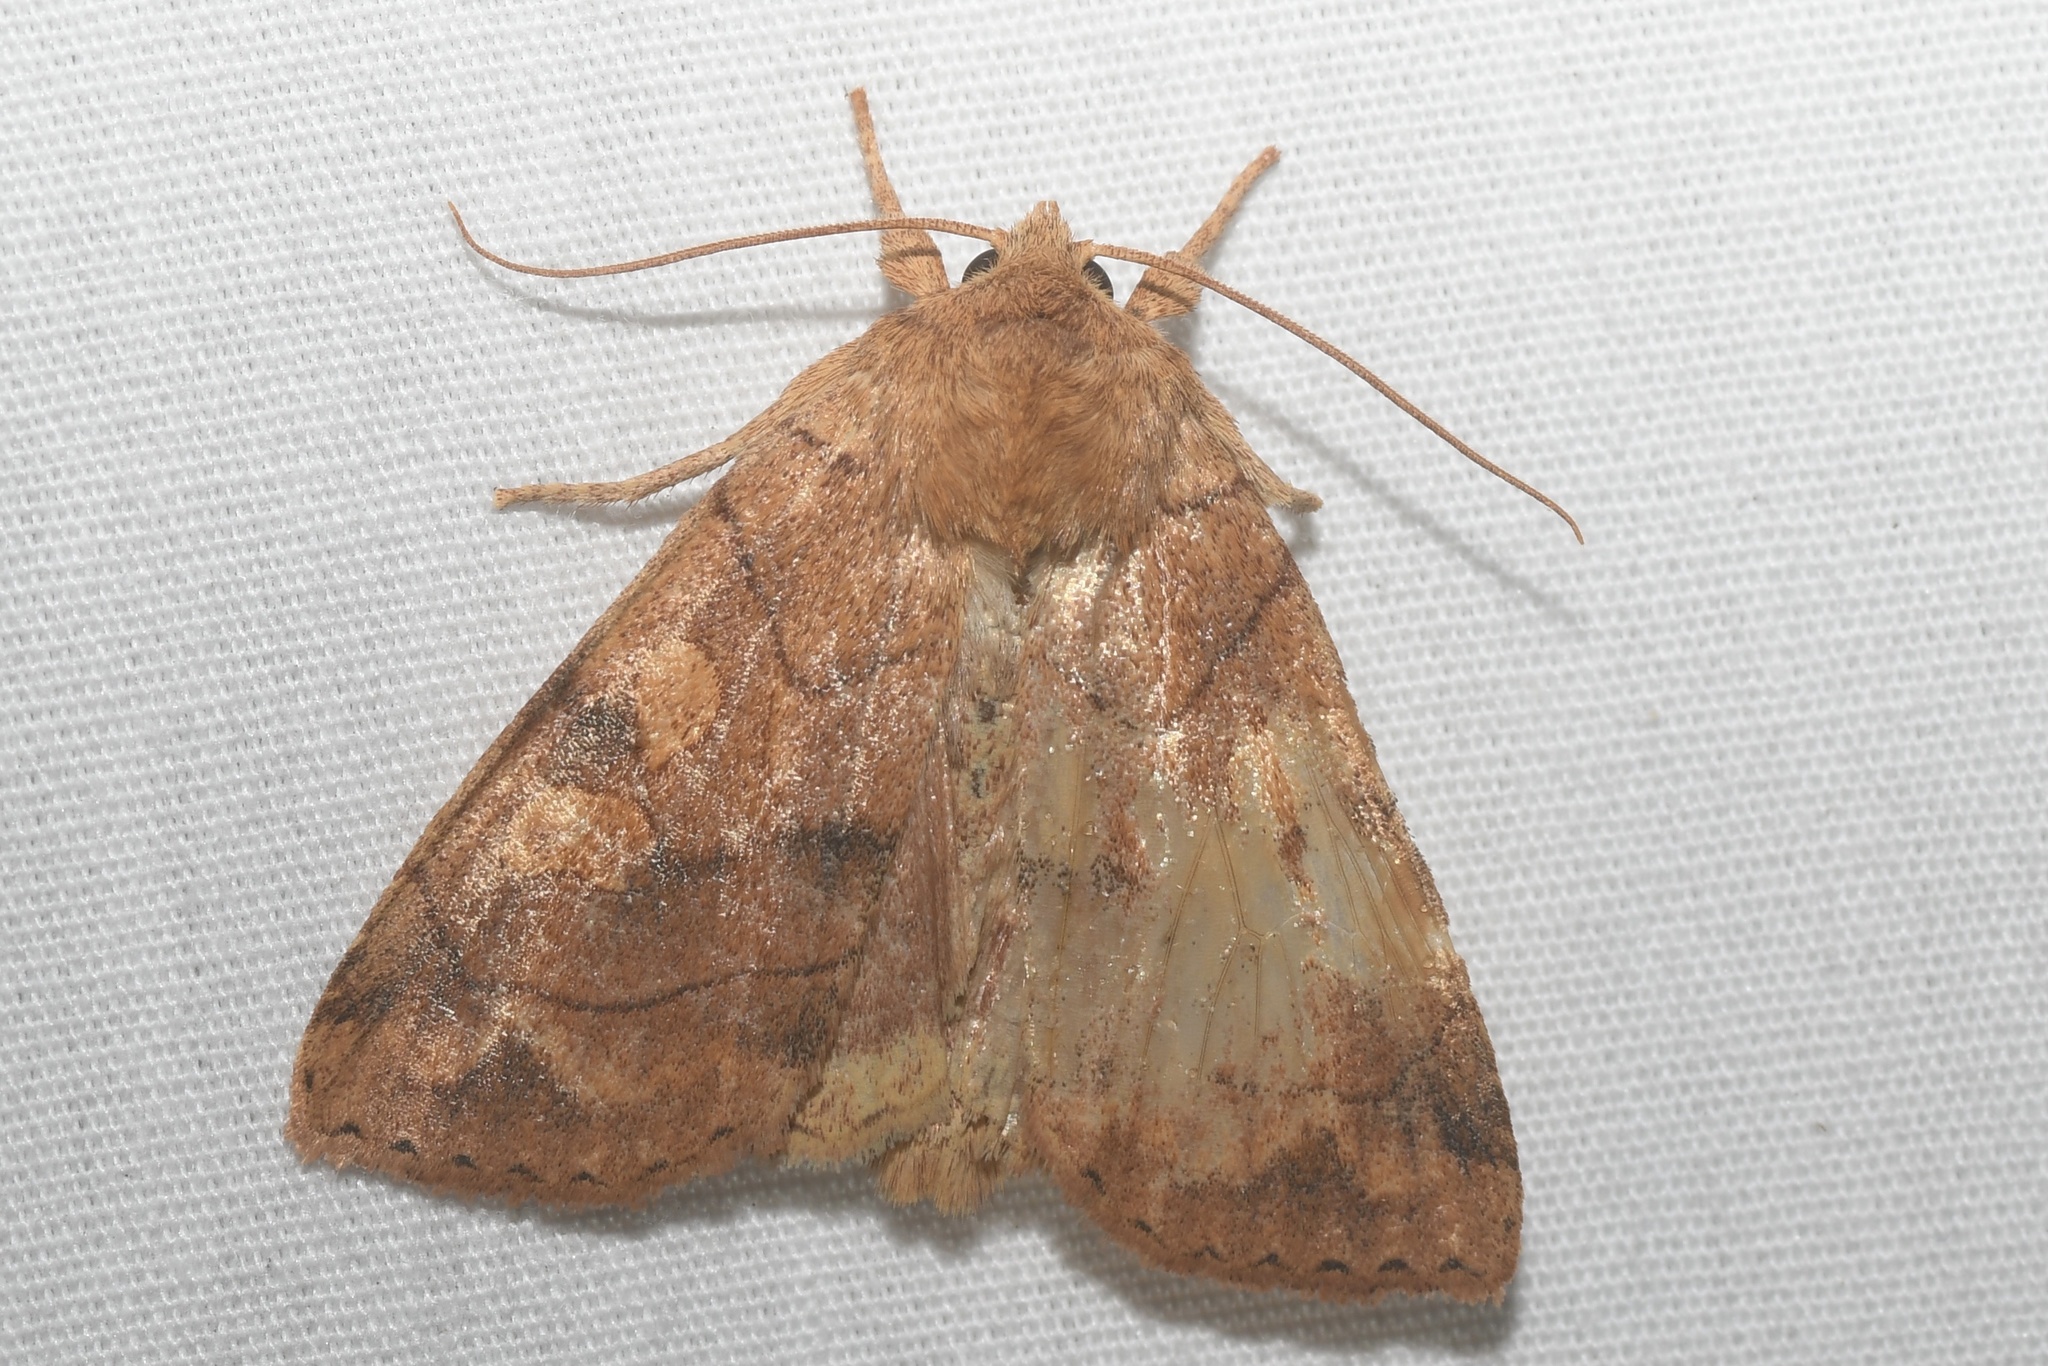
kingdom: Animalia
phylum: Arthropoda
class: Insecta
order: Lepidoptera
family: Noctuidae
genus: Enargia
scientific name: Enargia decolor
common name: Aspen twoleaf tier moth
